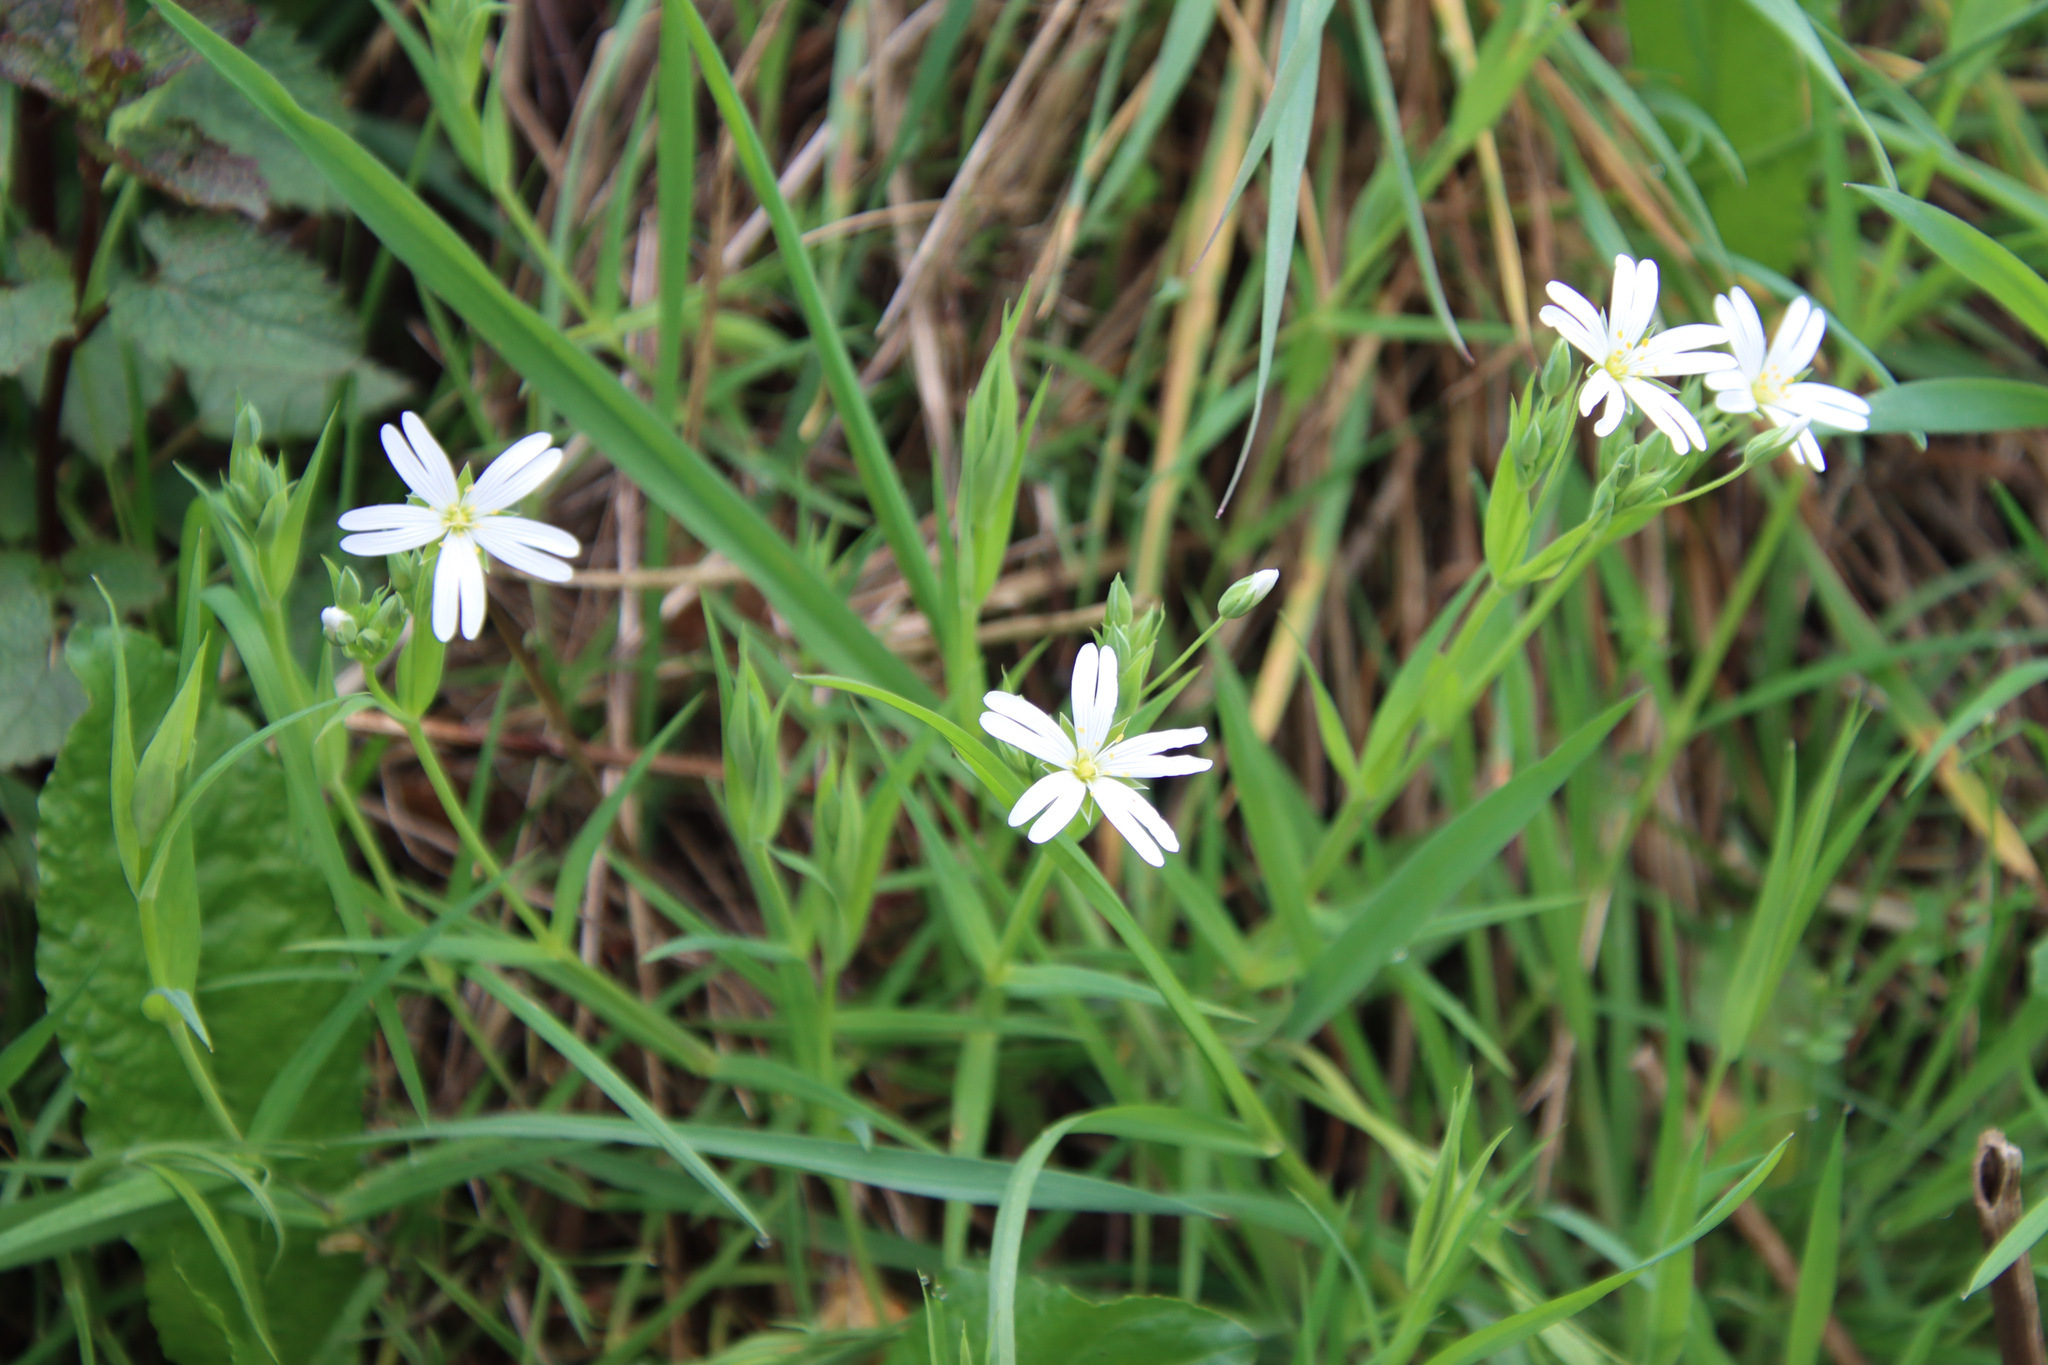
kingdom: Plantae
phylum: Tracheophyta
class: Magnoliopsida
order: Caryophyllales
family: Caryophyllaceae
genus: Rabelera
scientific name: Rabelera holostea
